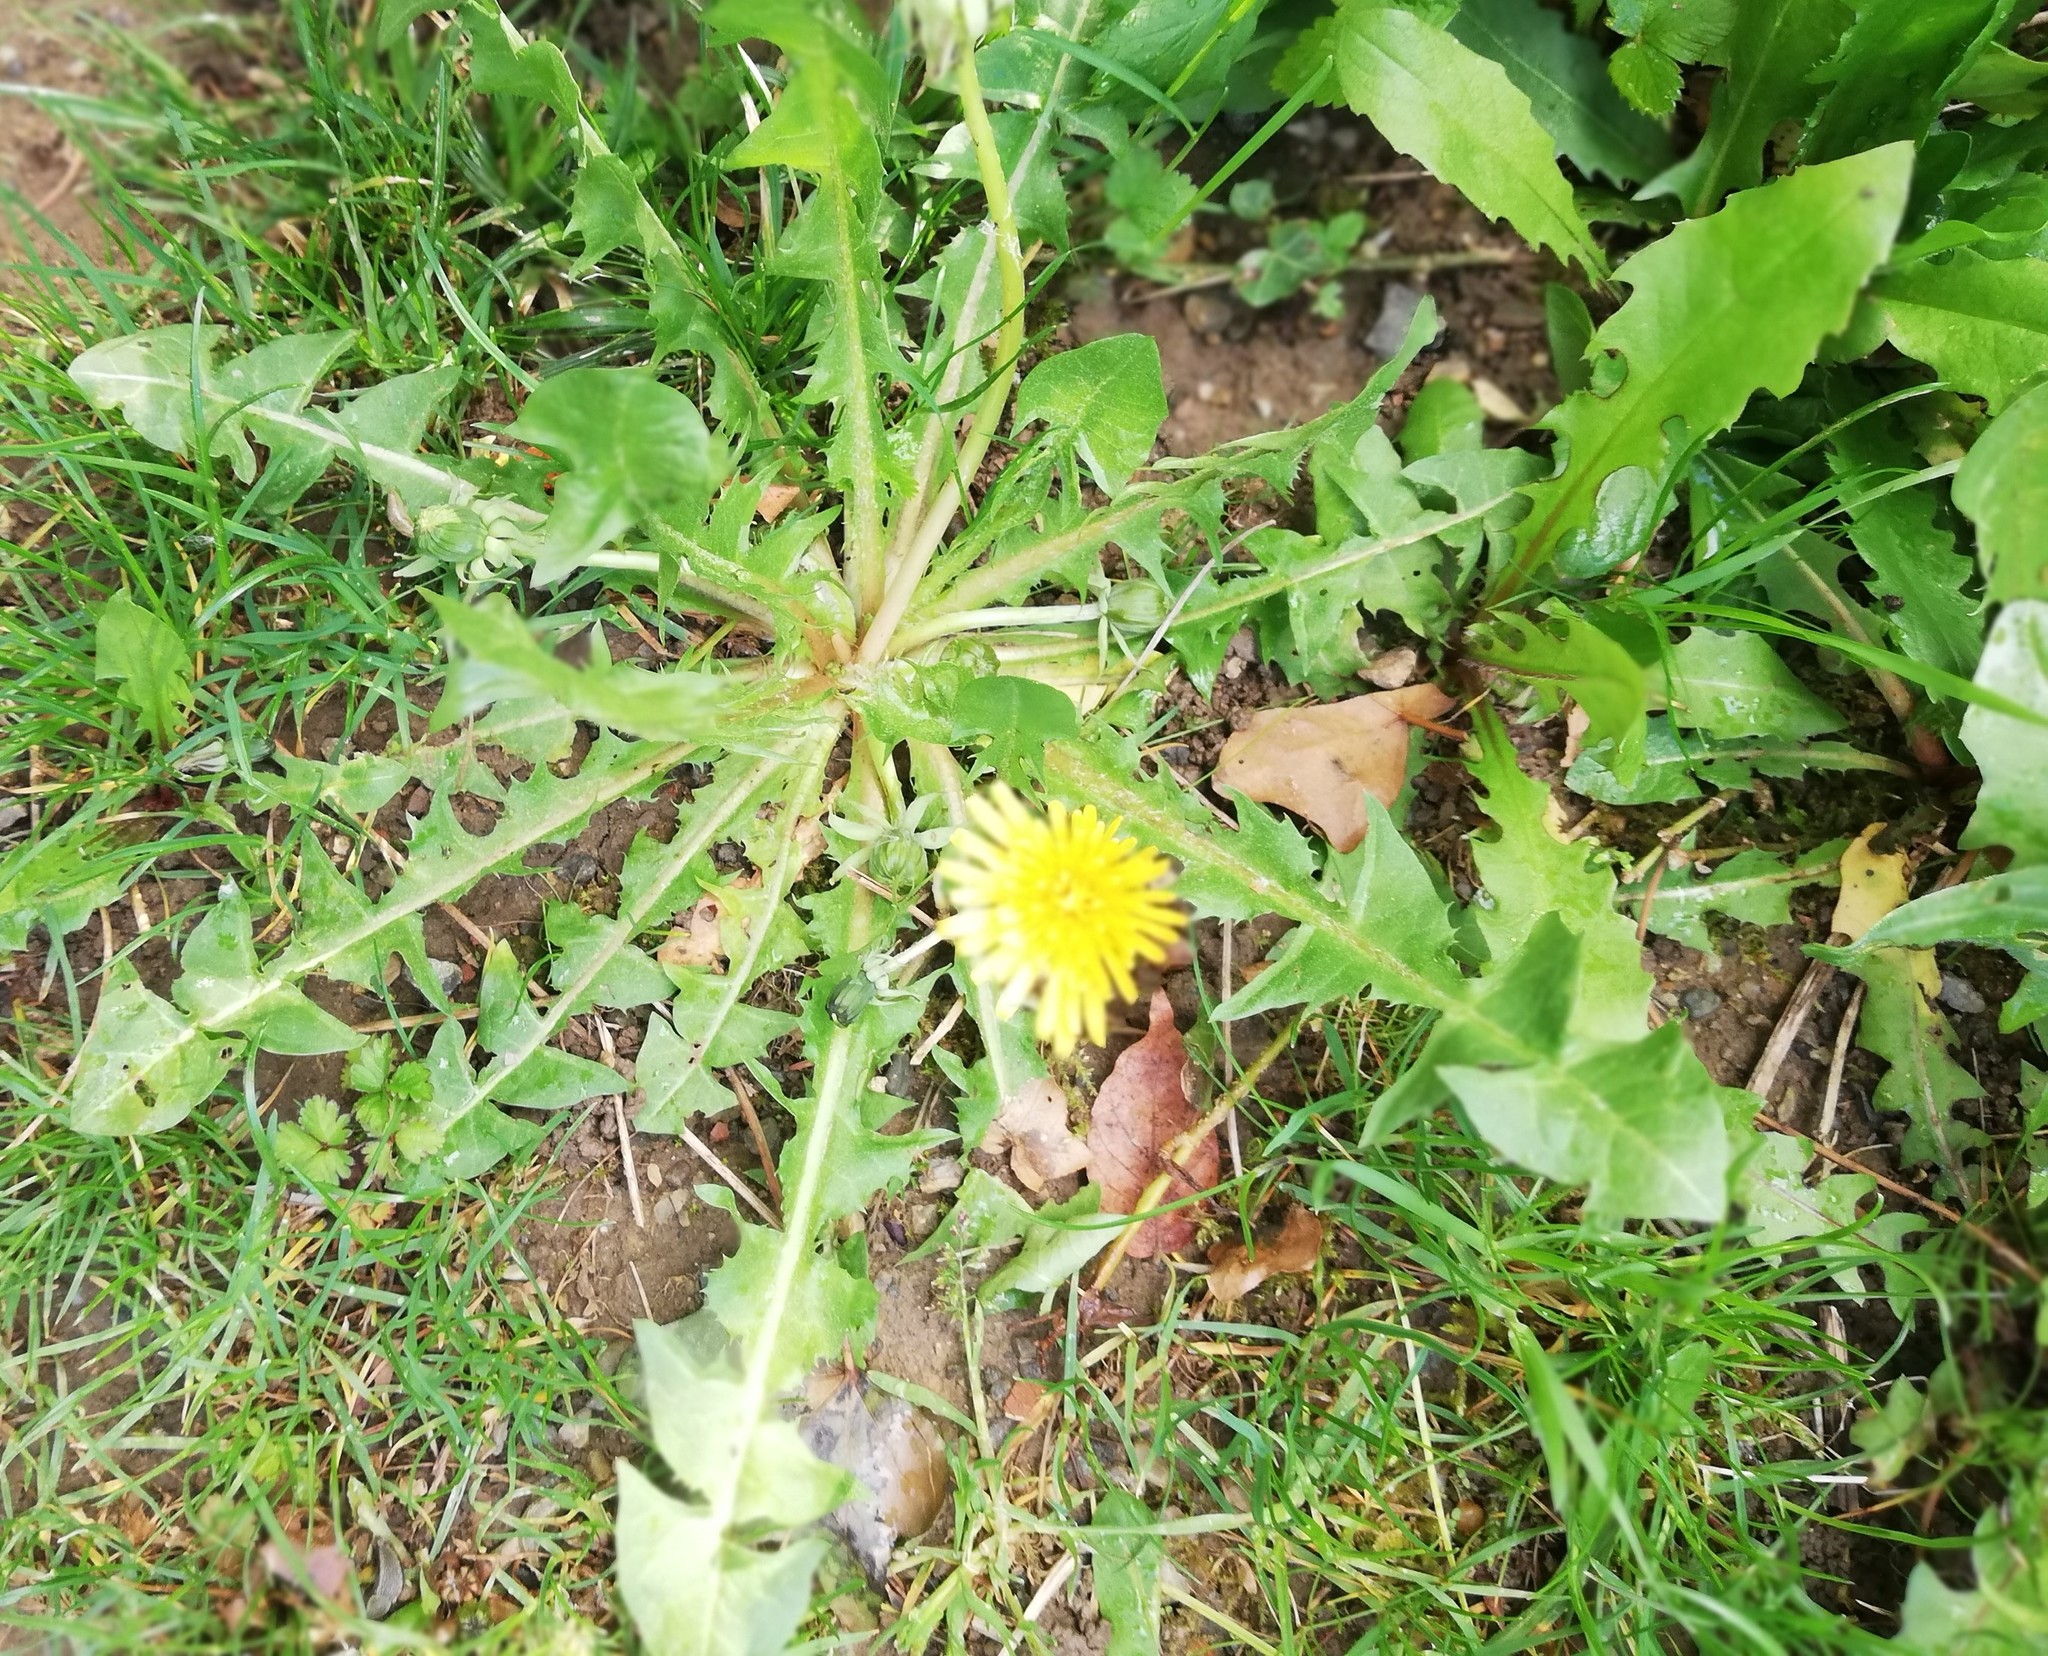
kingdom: Plantae
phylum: Tracheophyta
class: Magnoliopsida
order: Asterales
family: Asteraceae
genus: Taraxacum
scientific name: Taraxacum officinale
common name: Common dandelion
